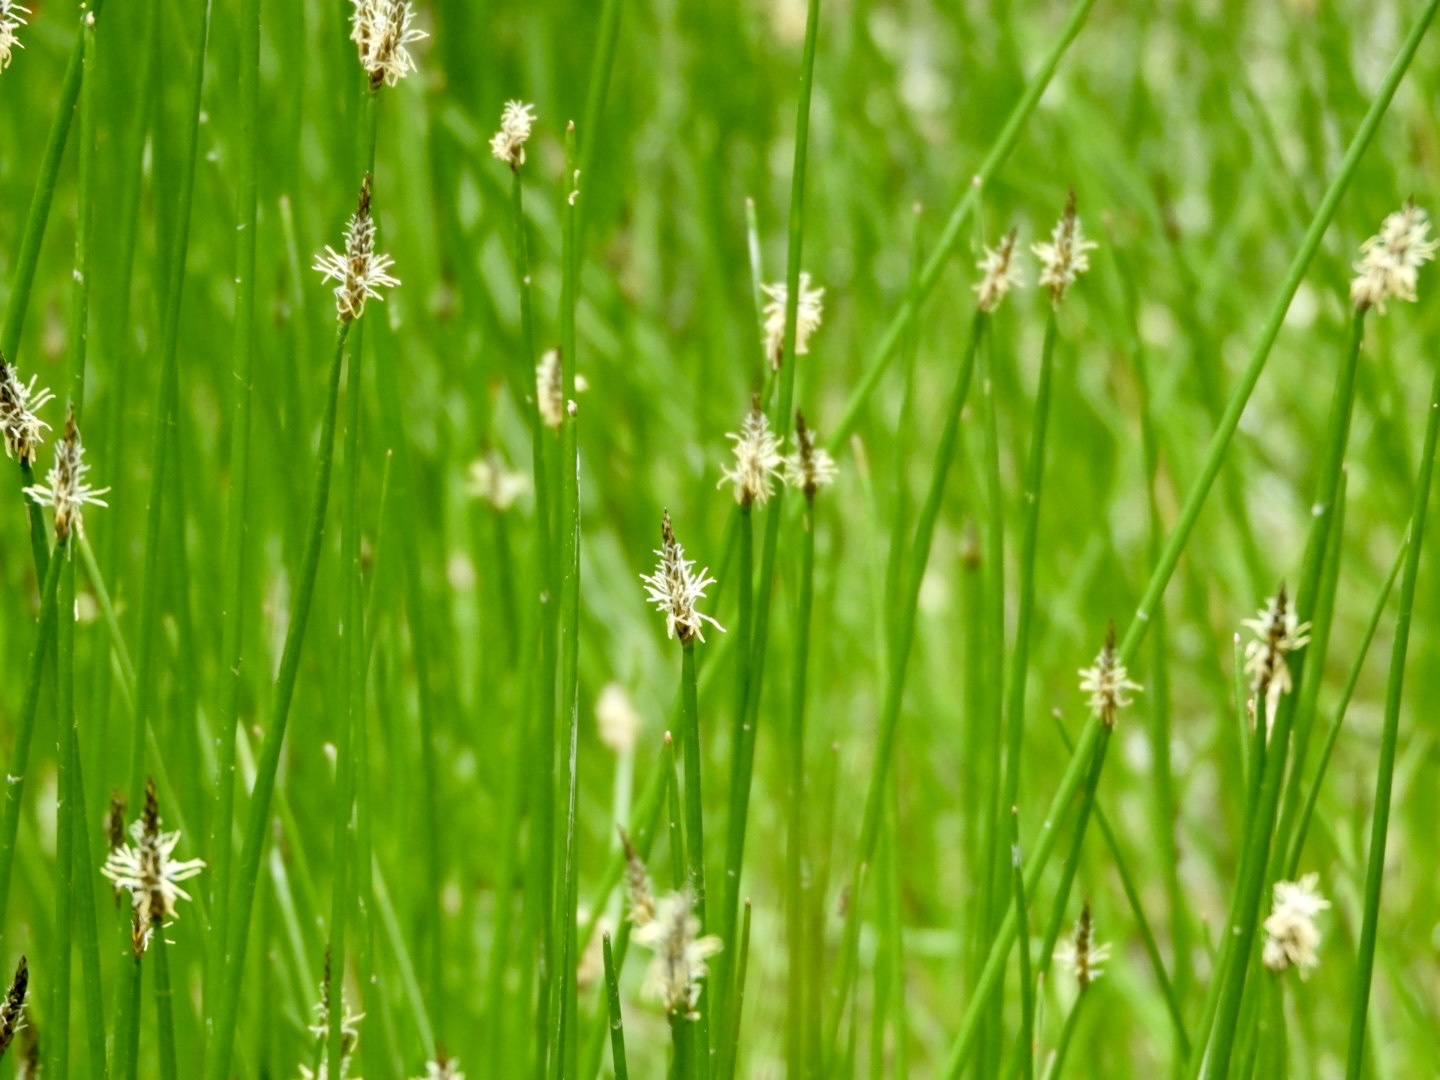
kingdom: Plantae
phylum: Tracheophyta
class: Liliopsida
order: Poales
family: Cyperaceae
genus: Eleocharis
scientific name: Eleocharis palustris
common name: Common spike-rush
